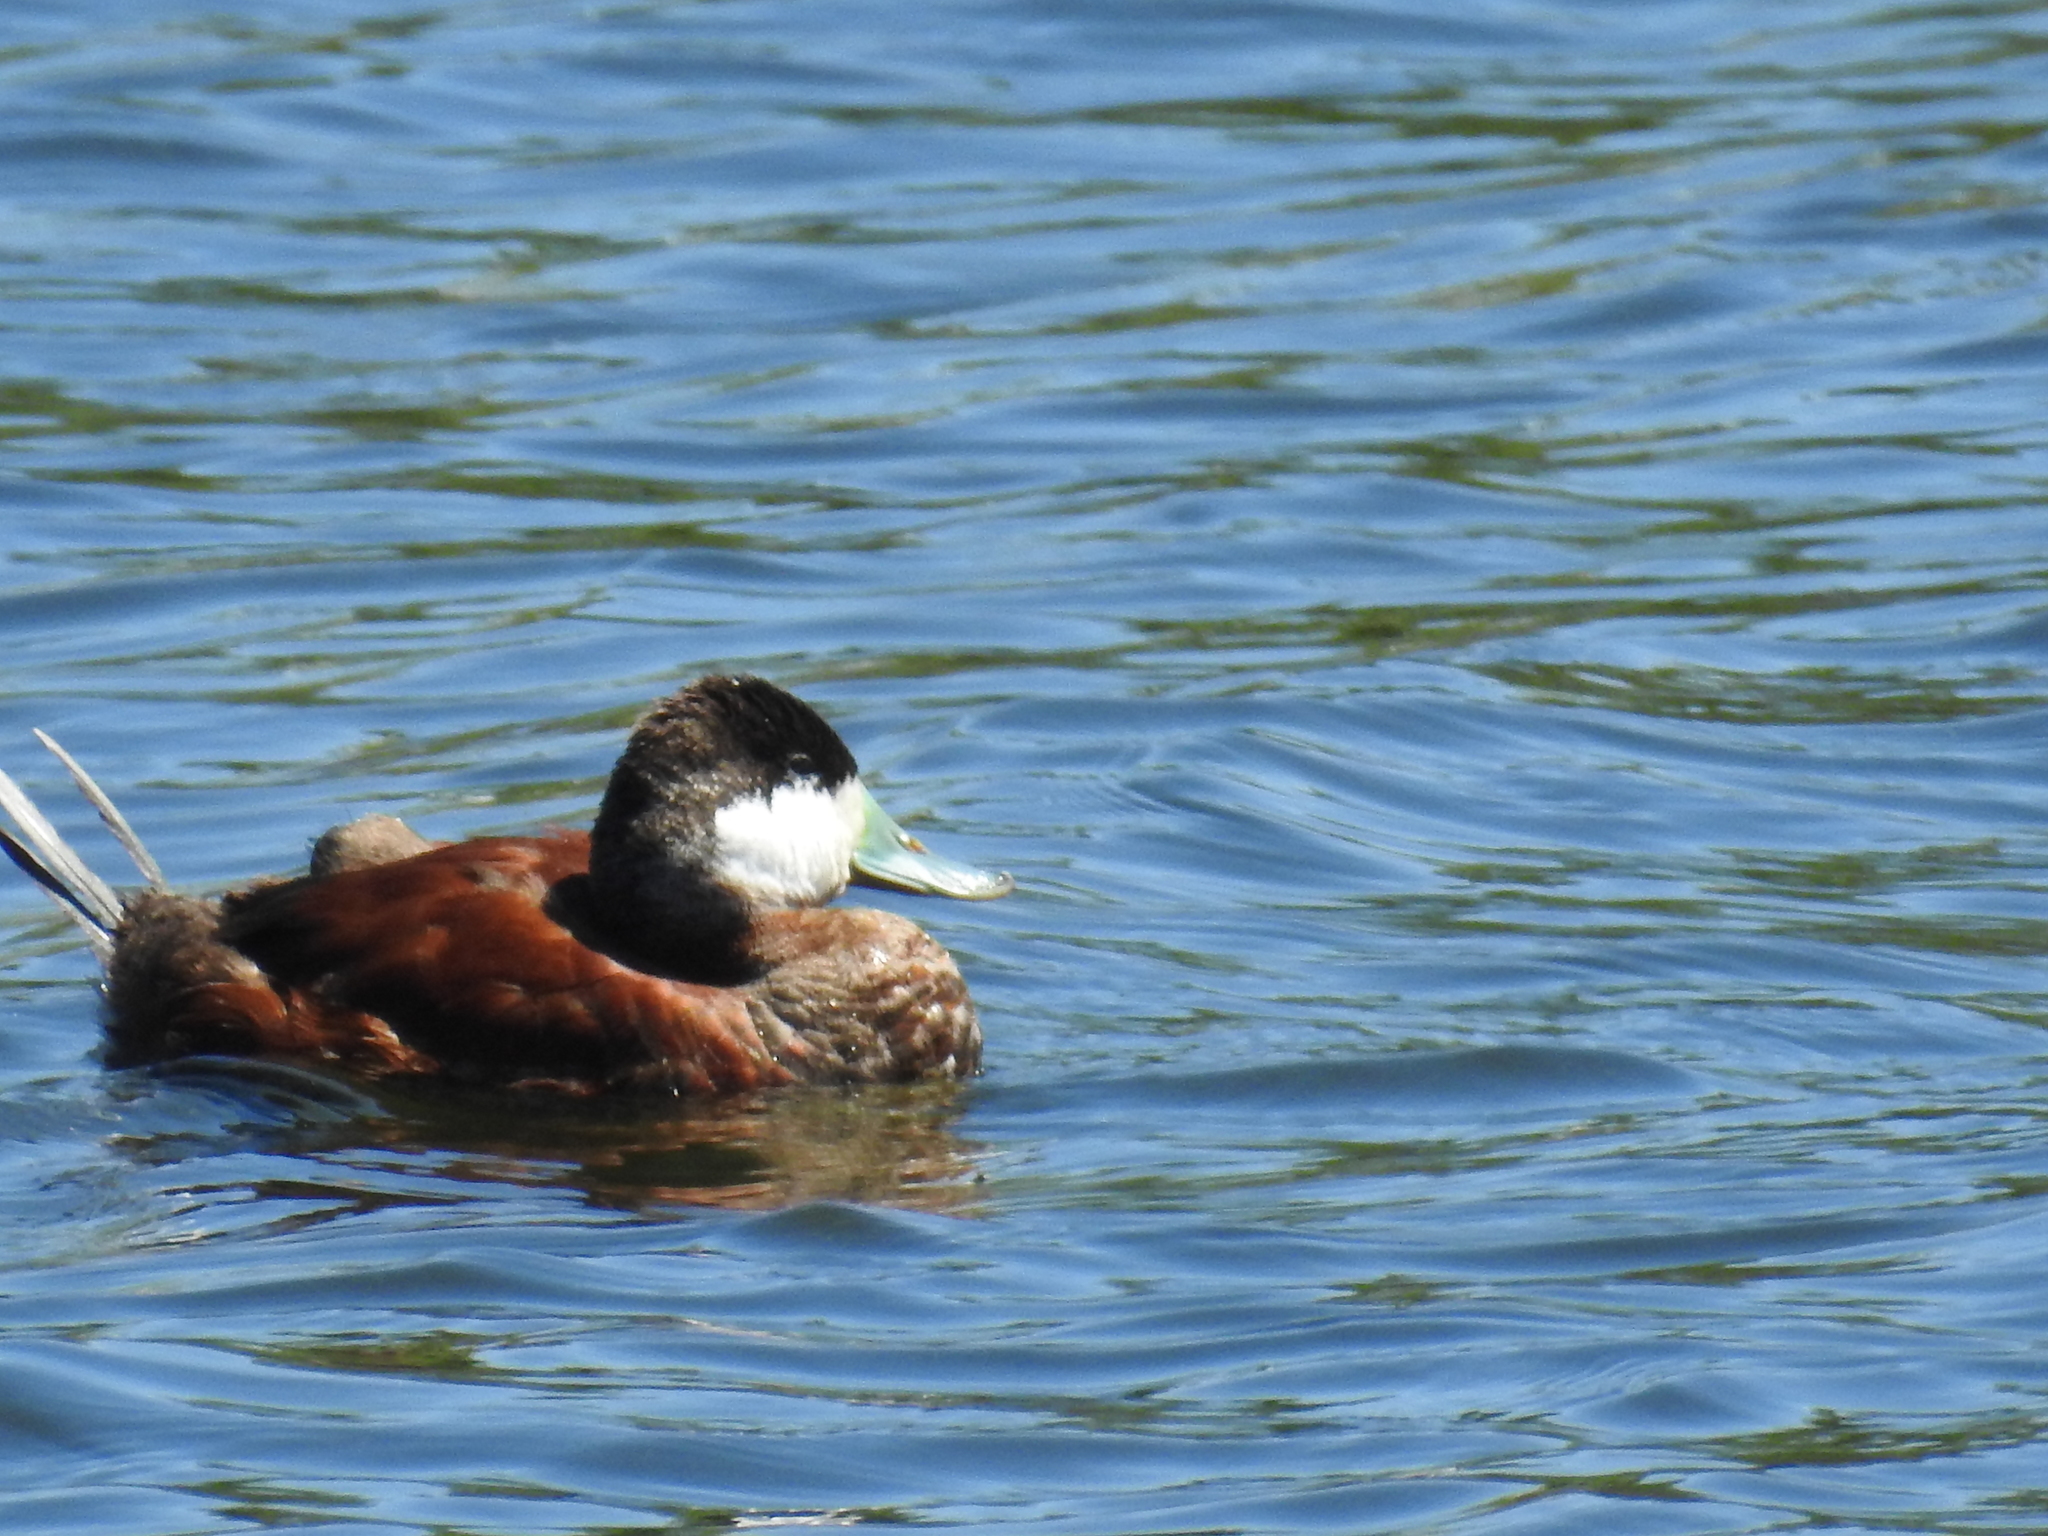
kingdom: Animalia
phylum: Chordata
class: Aves
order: Anseriformes
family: Anatidae
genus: Oxyura
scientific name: Oxyura jamaicensis
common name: Ruddy duck
